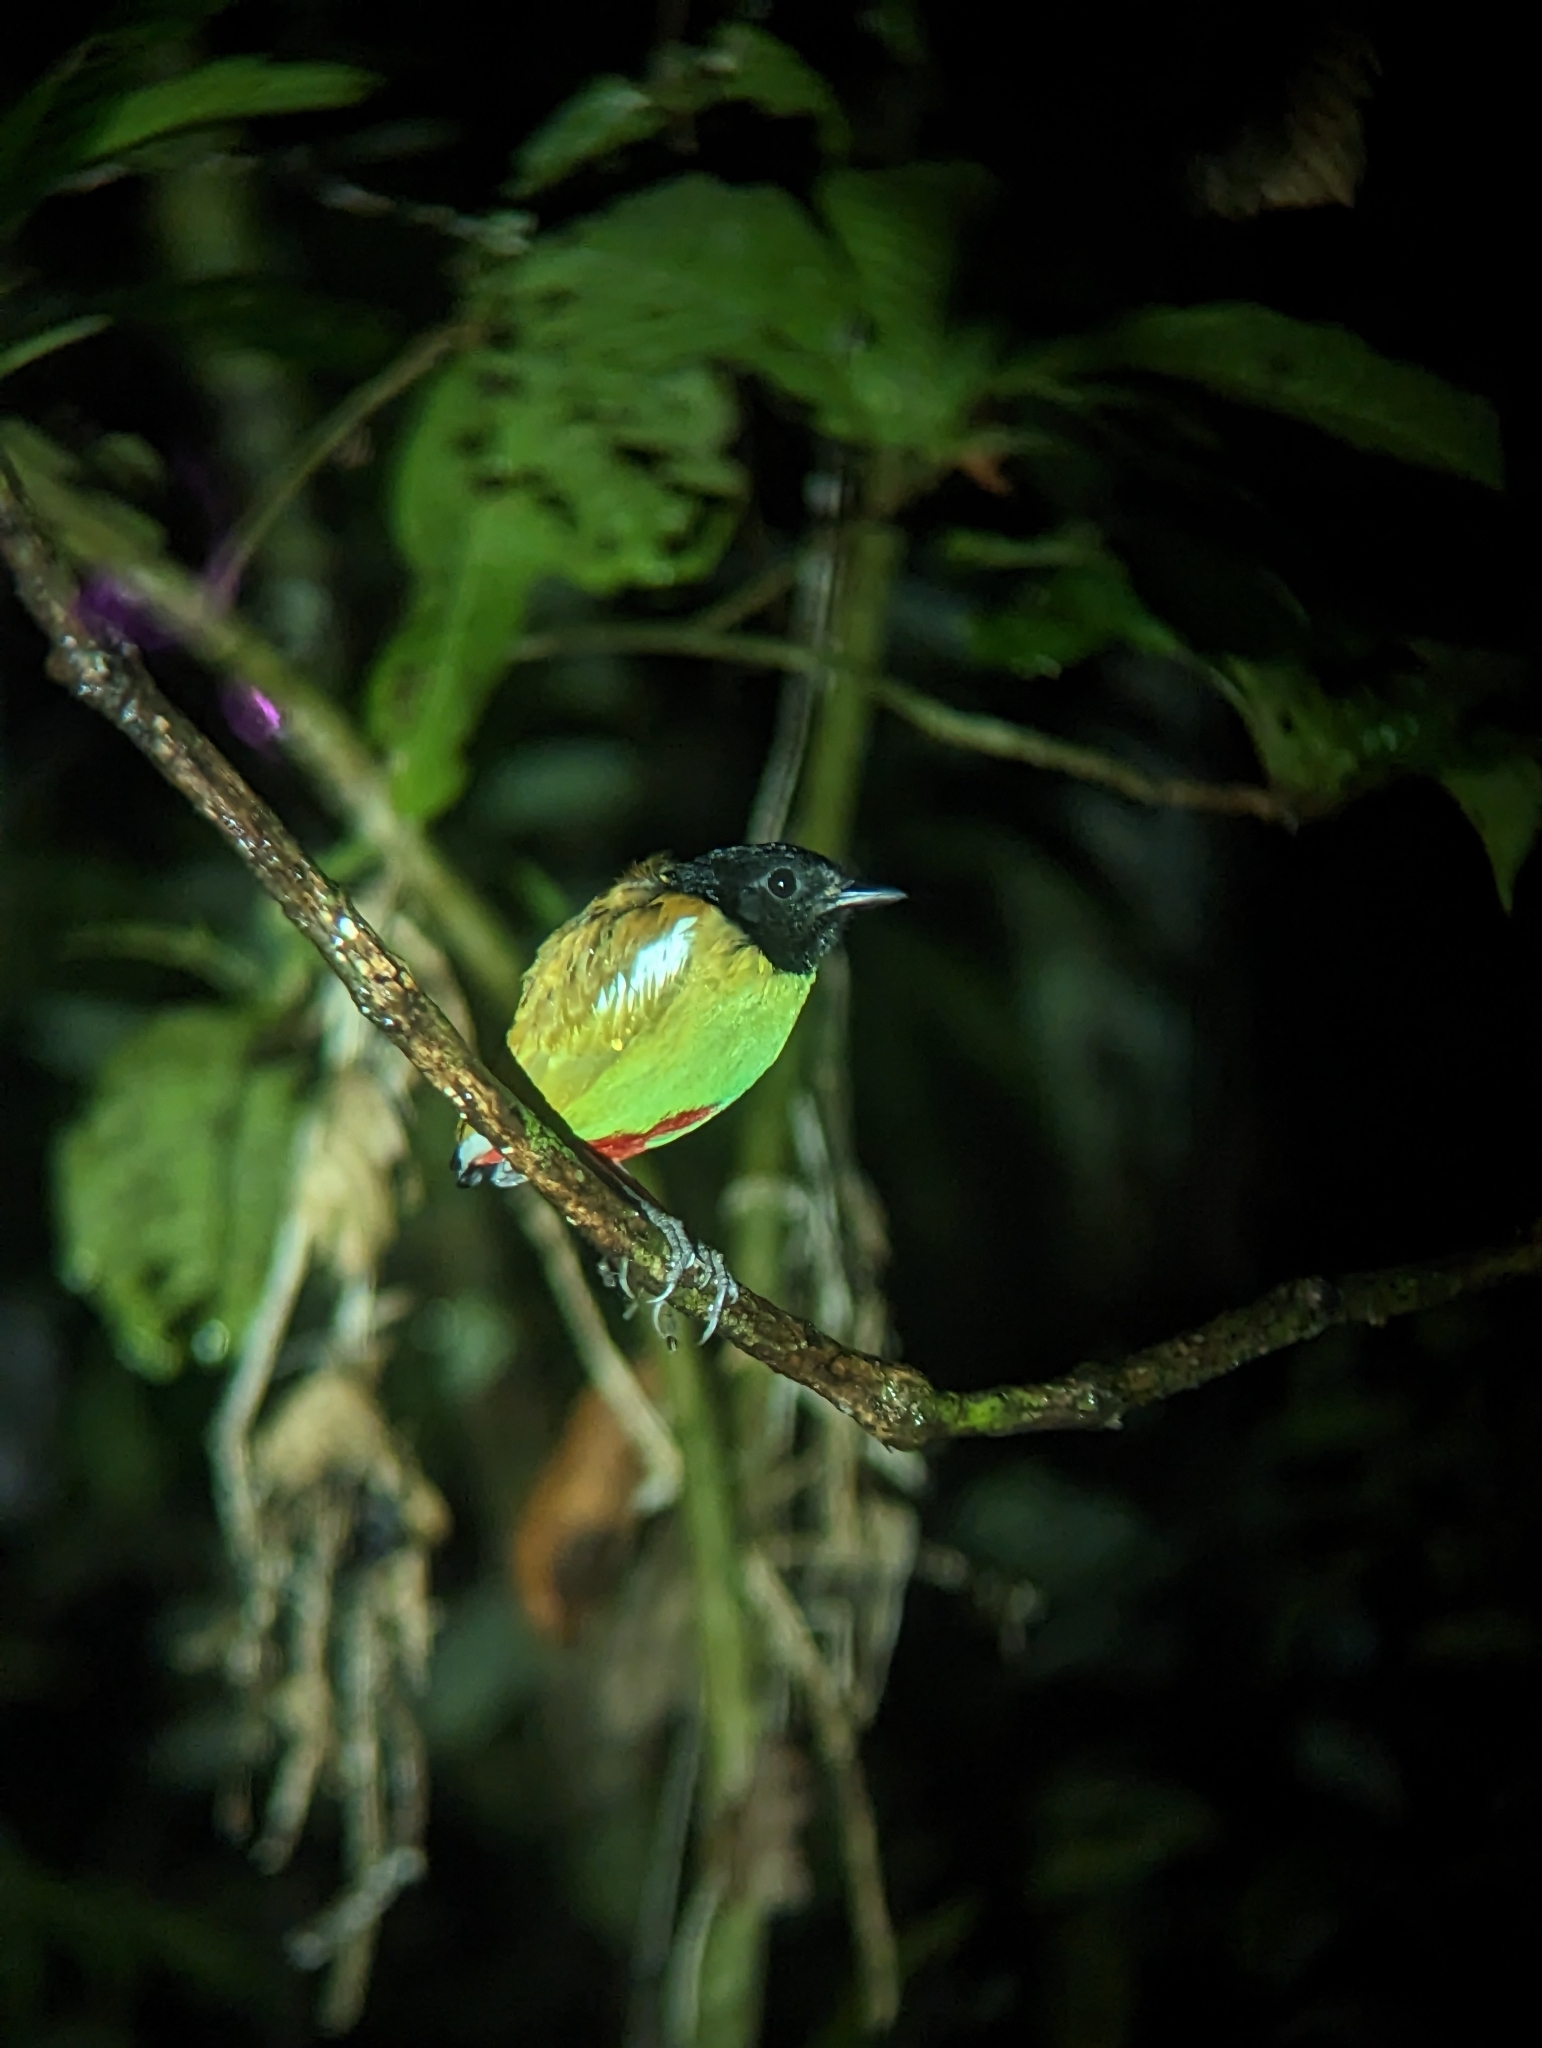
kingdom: Animalia
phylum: Chordata
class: Aves
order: Passeriformes
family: Pittidae
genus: Pitta
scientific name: Pitta sordida
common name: Hooded pitta
